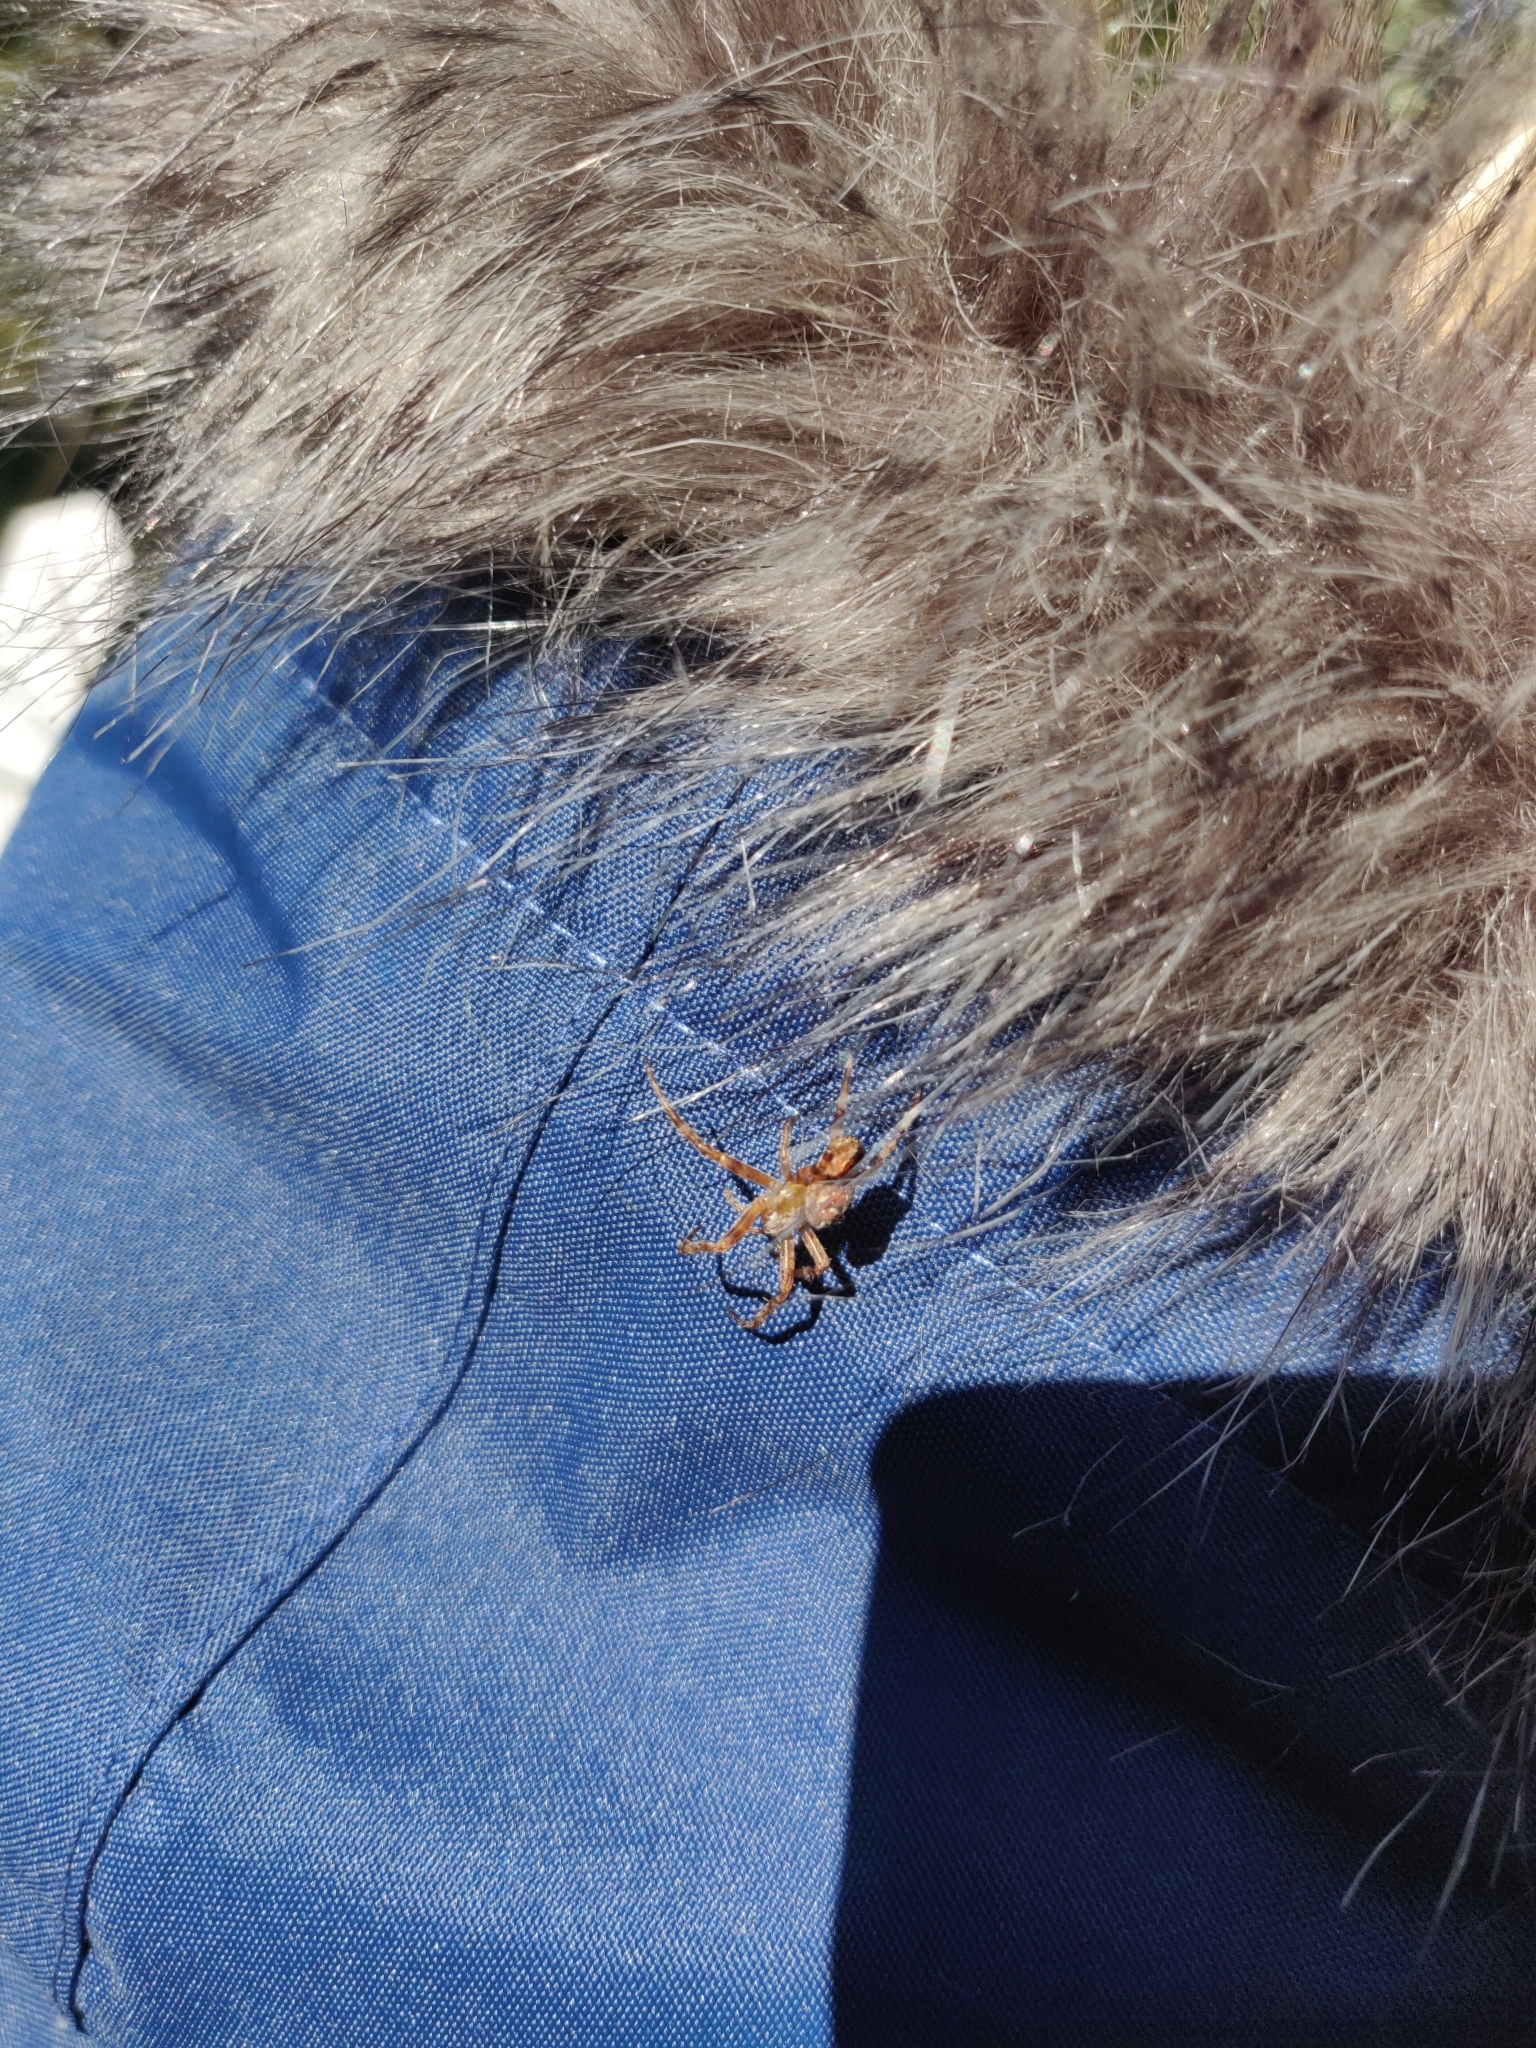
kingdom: Animalia
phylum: Arthropoda
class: Arachnida
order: Araneae
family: Araneidae
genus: Araneus
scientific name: Araneus diadematus
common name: Cross orbweaver
